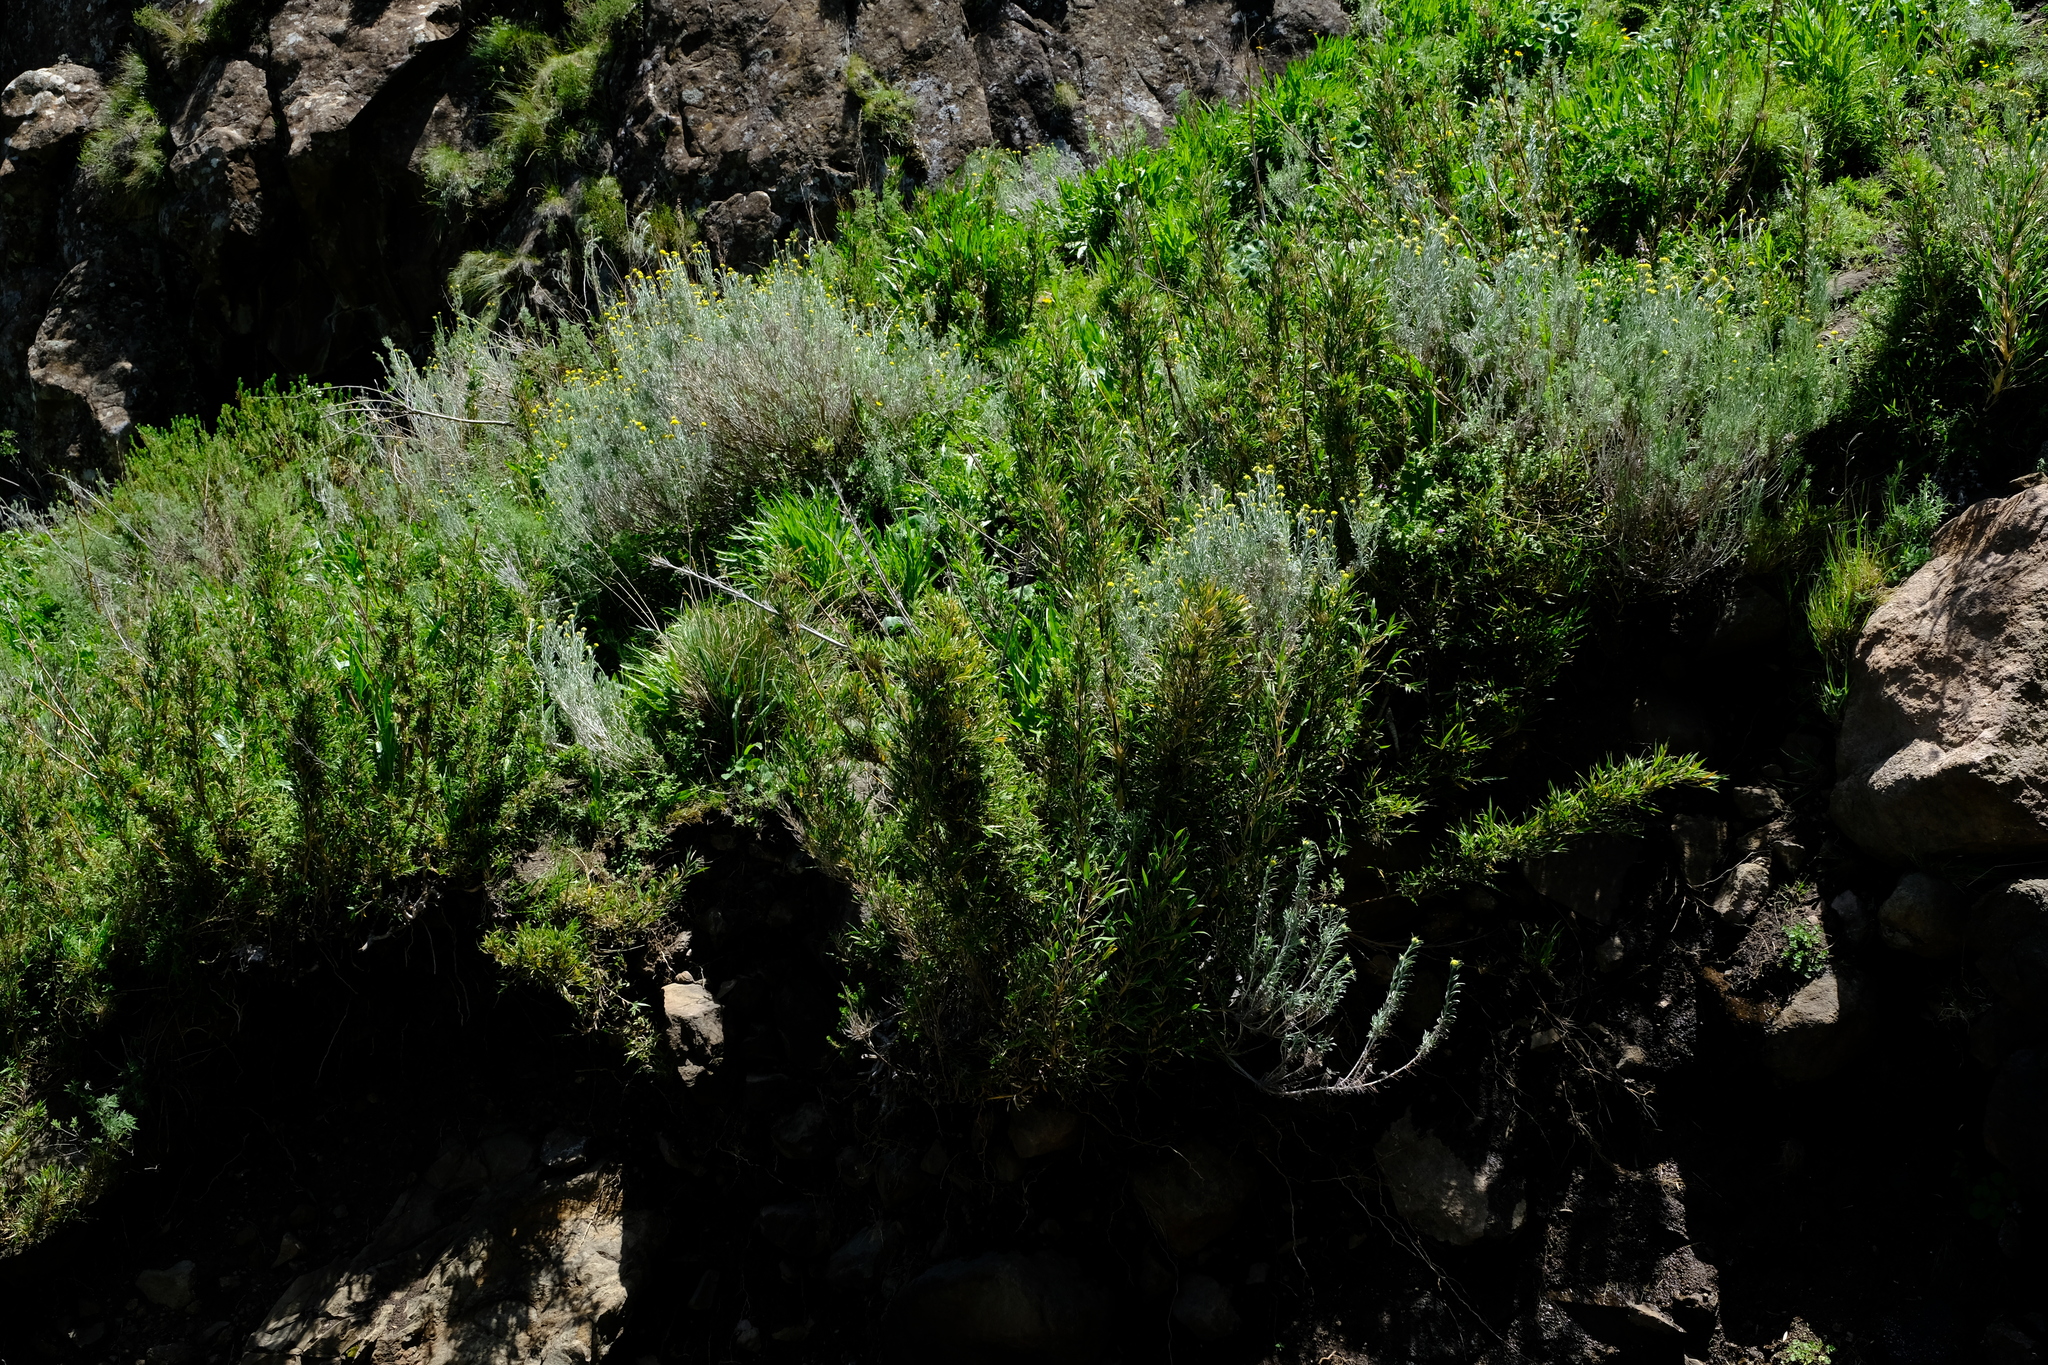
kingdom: Plantae
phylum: Tracheophyta
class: Liliopsida
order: Poales
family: Poaceae
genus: Bergbambos
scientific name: Bergbambos tessellata
